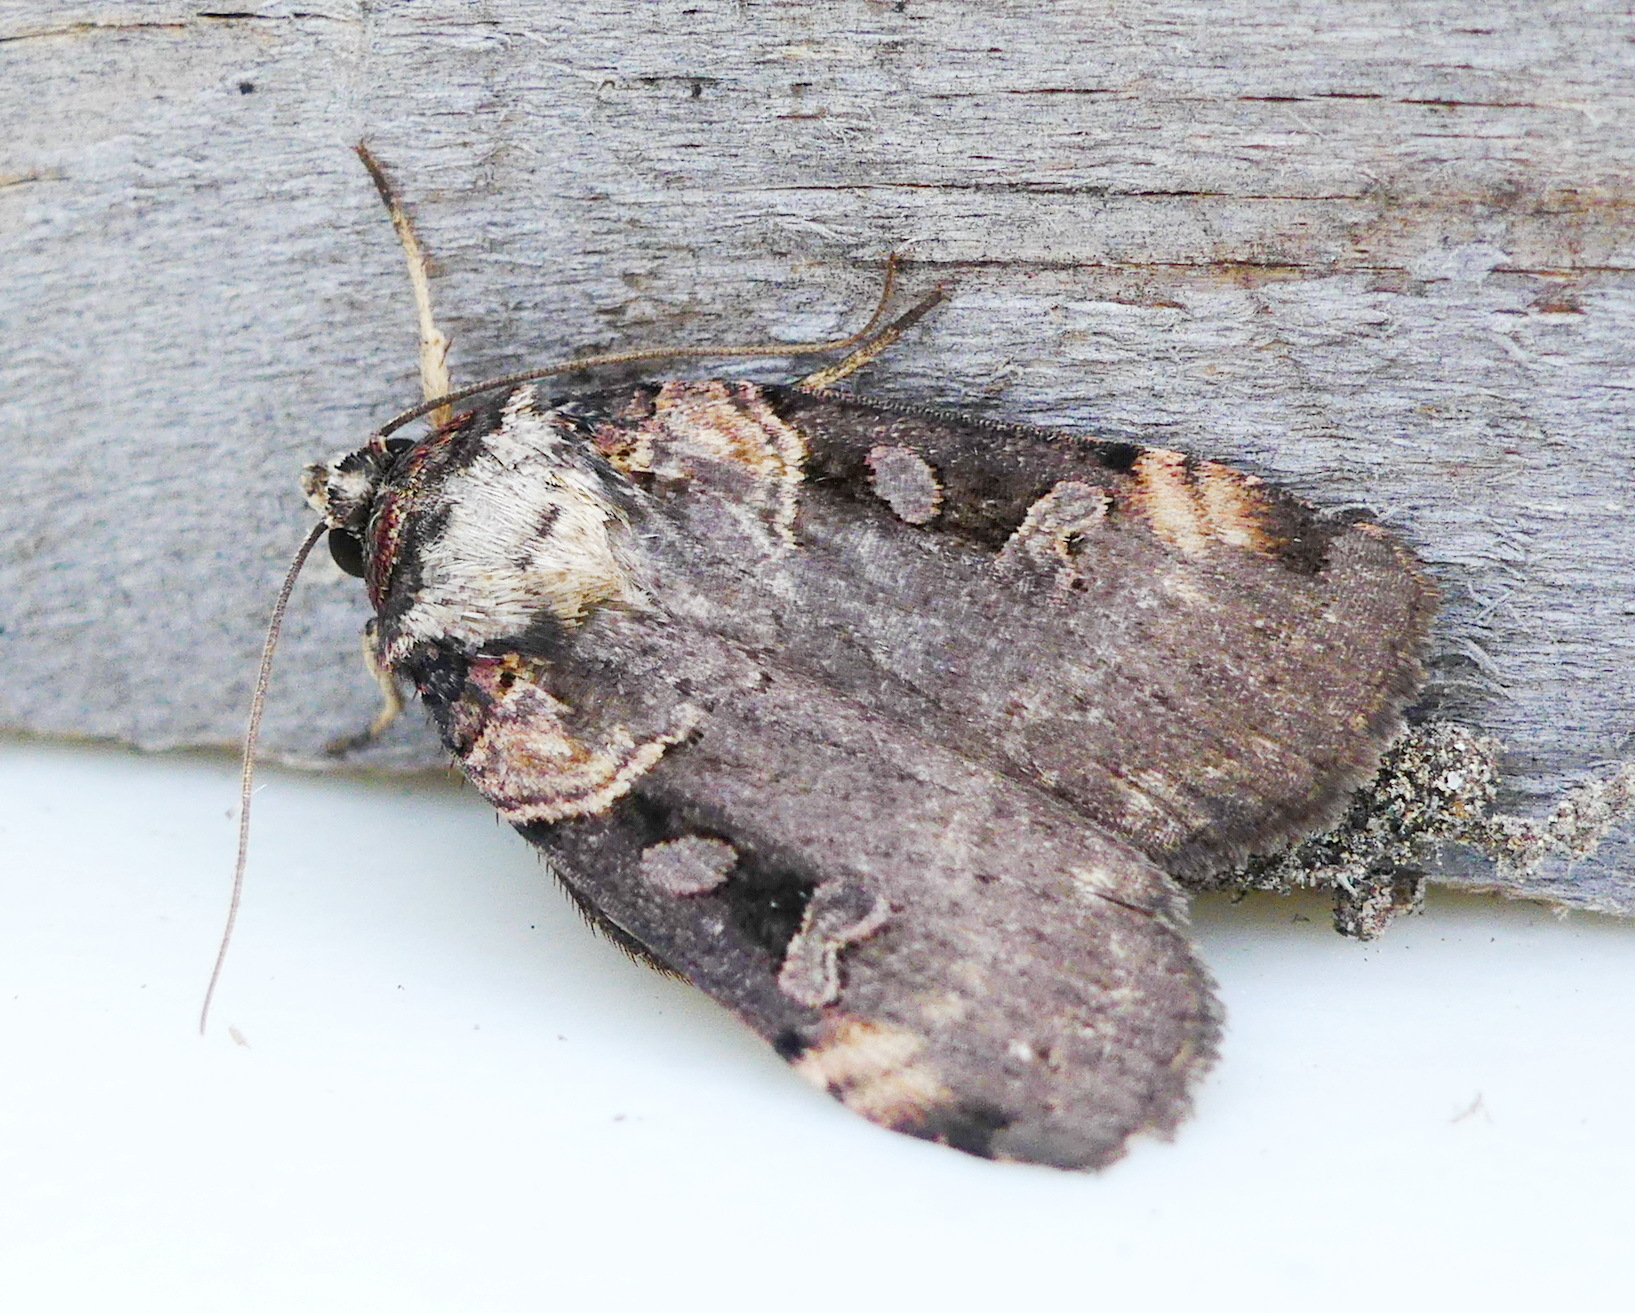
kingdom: Animalia
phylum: Arthropoda
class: Insecta
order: Lepidoptera
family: Noctuidae
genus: Pseudohermonassa
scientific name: Pseudohermonassa bicarnea
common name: Pink spotted dart
